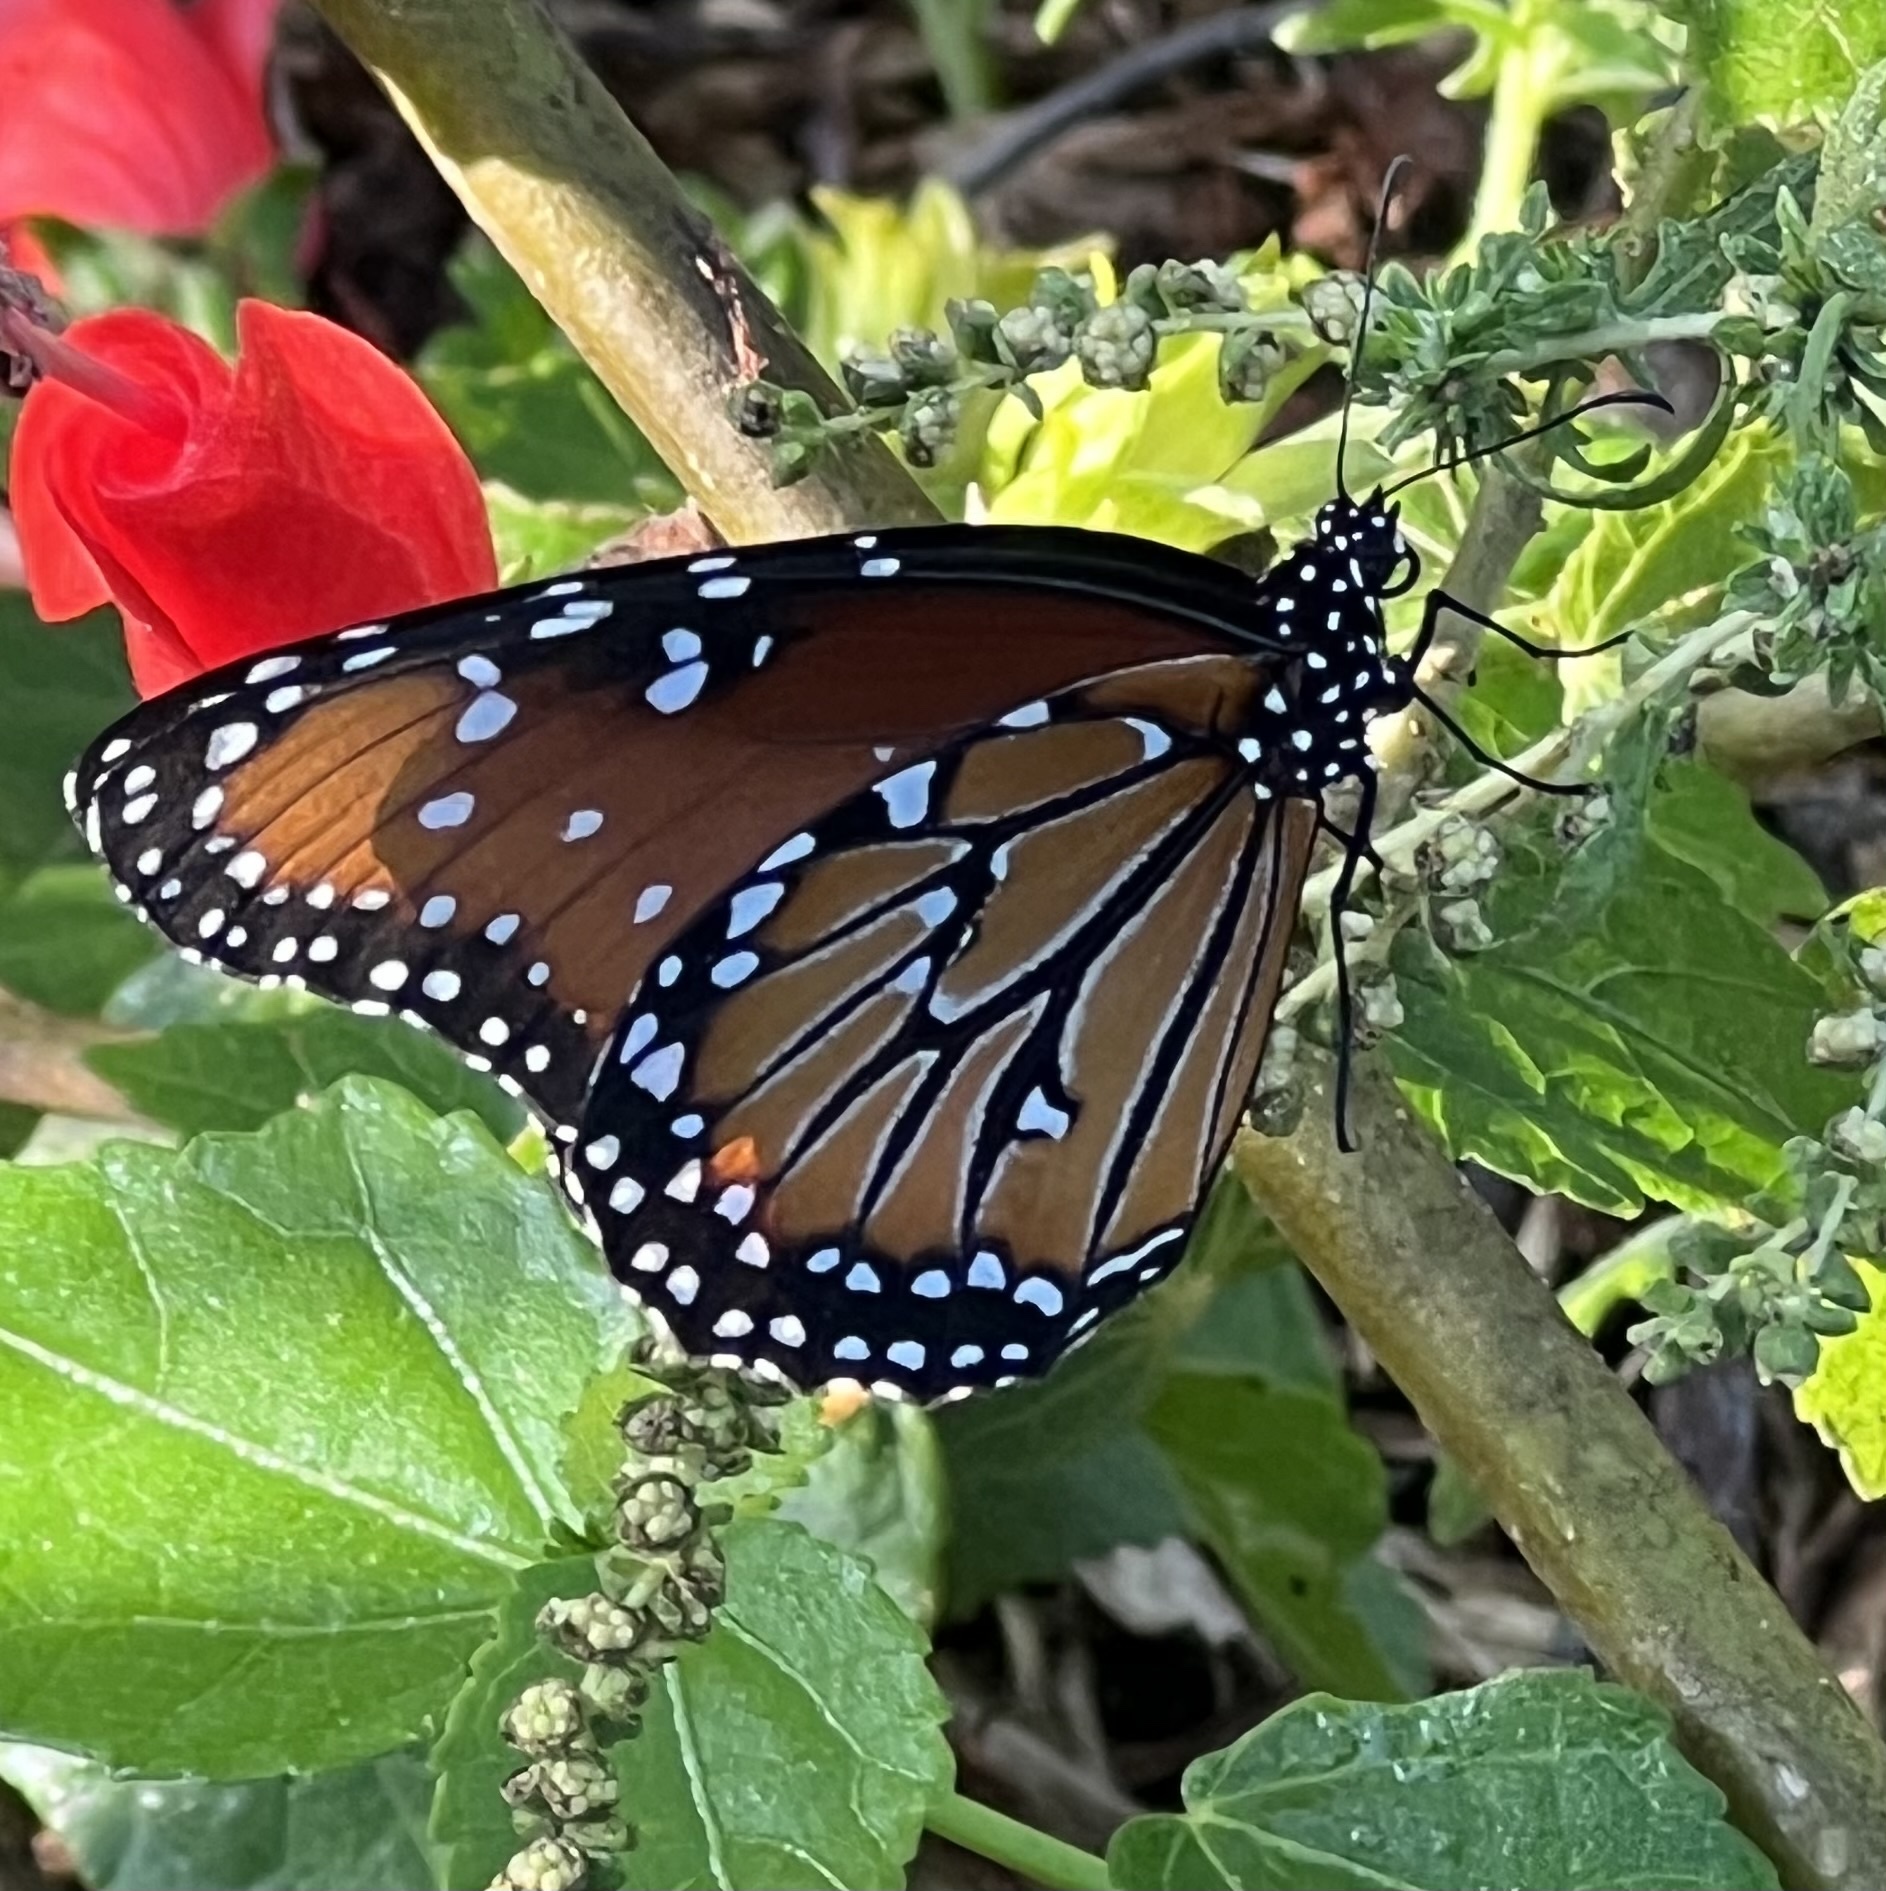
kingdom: Animalia
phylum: Arthropoda
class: Insecta
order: Lepidoptera
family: Nymphalidae
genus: Danaus
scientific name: Danaus gilippus
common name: Queen
